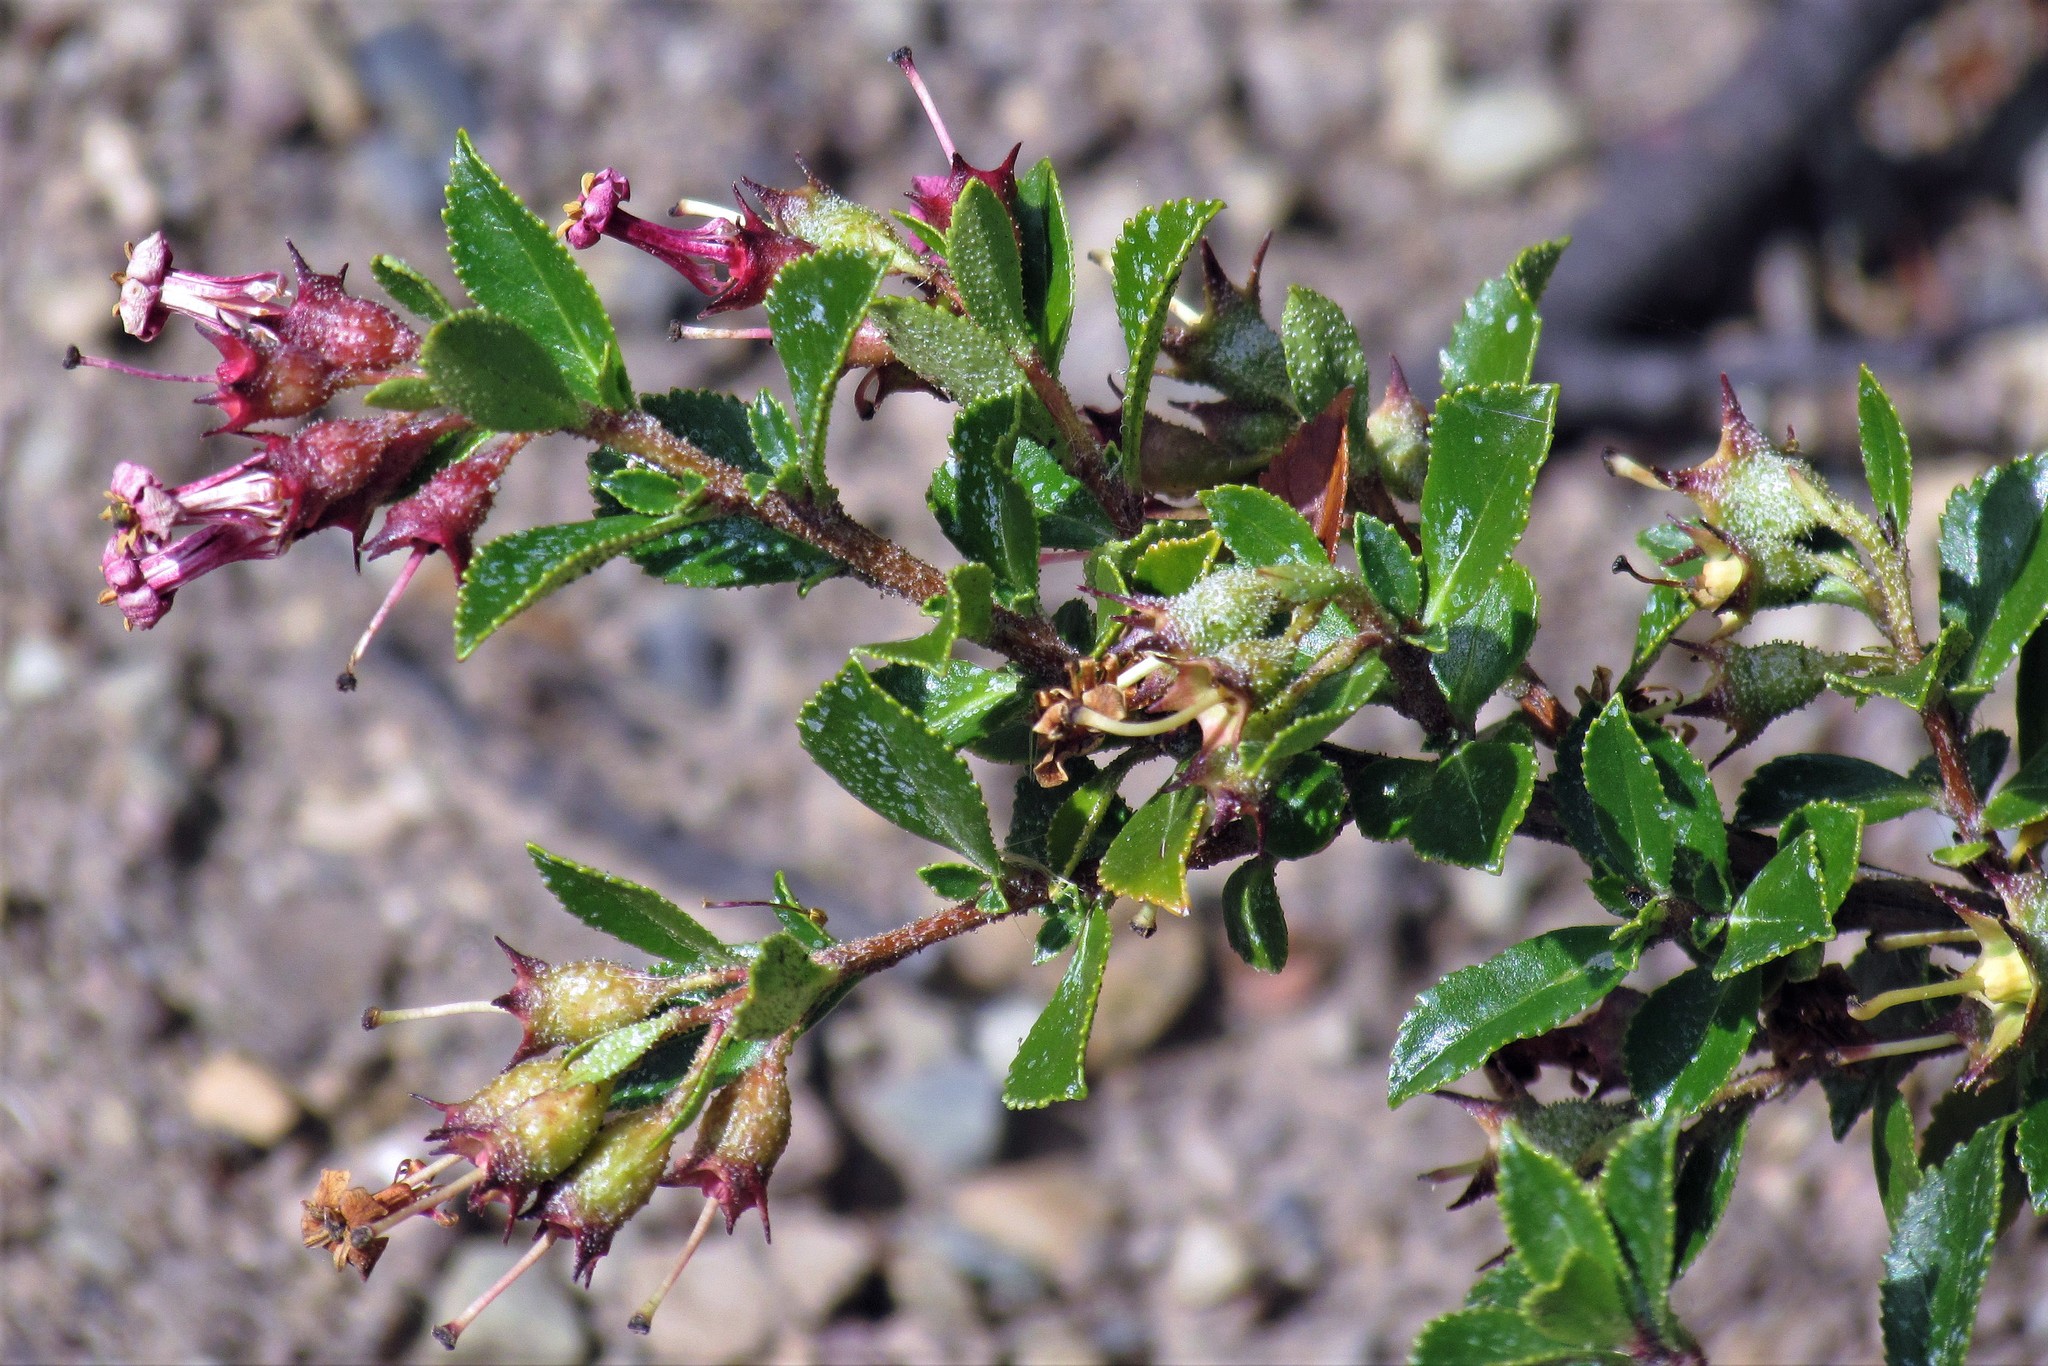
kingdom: Plantae
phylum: Tracheophyta
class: Magnoliopsida
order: Escalloniales
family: Escalloniaceae
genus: Escallonia
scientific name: Escallonia rubra
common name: Redclaws
